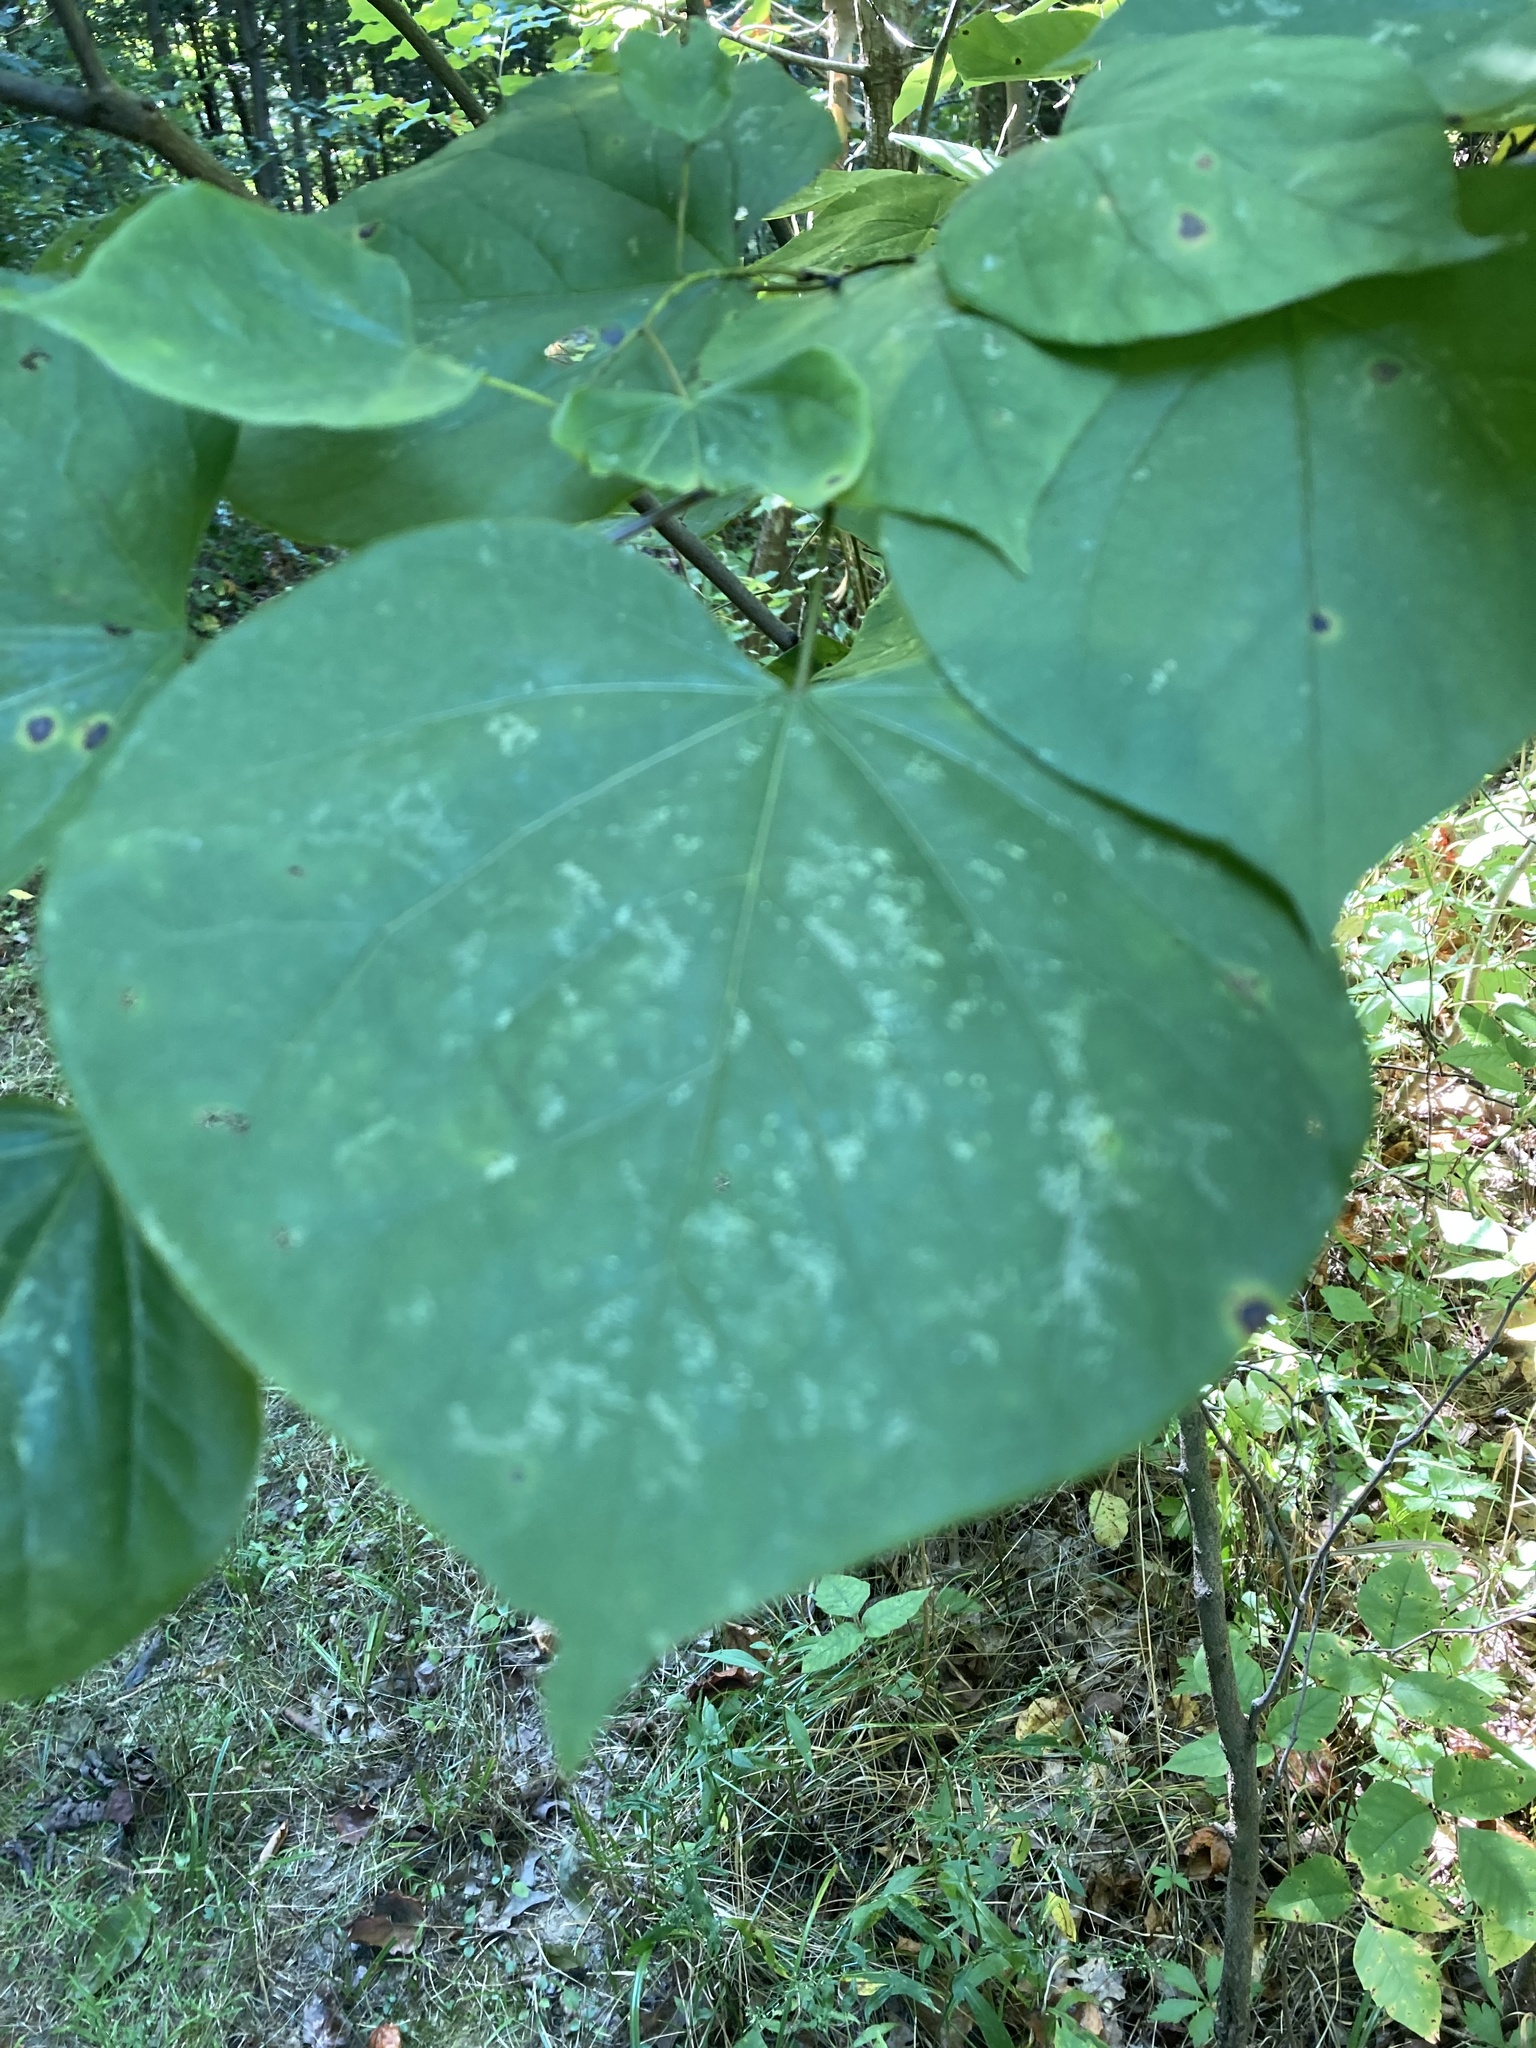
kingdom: Plantae
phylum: Tracheophyta
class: Magnoliopsida
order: Fabales
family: Fabaceae
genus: Cercis
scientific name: Cercis canadensis
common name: Eastern redbud
